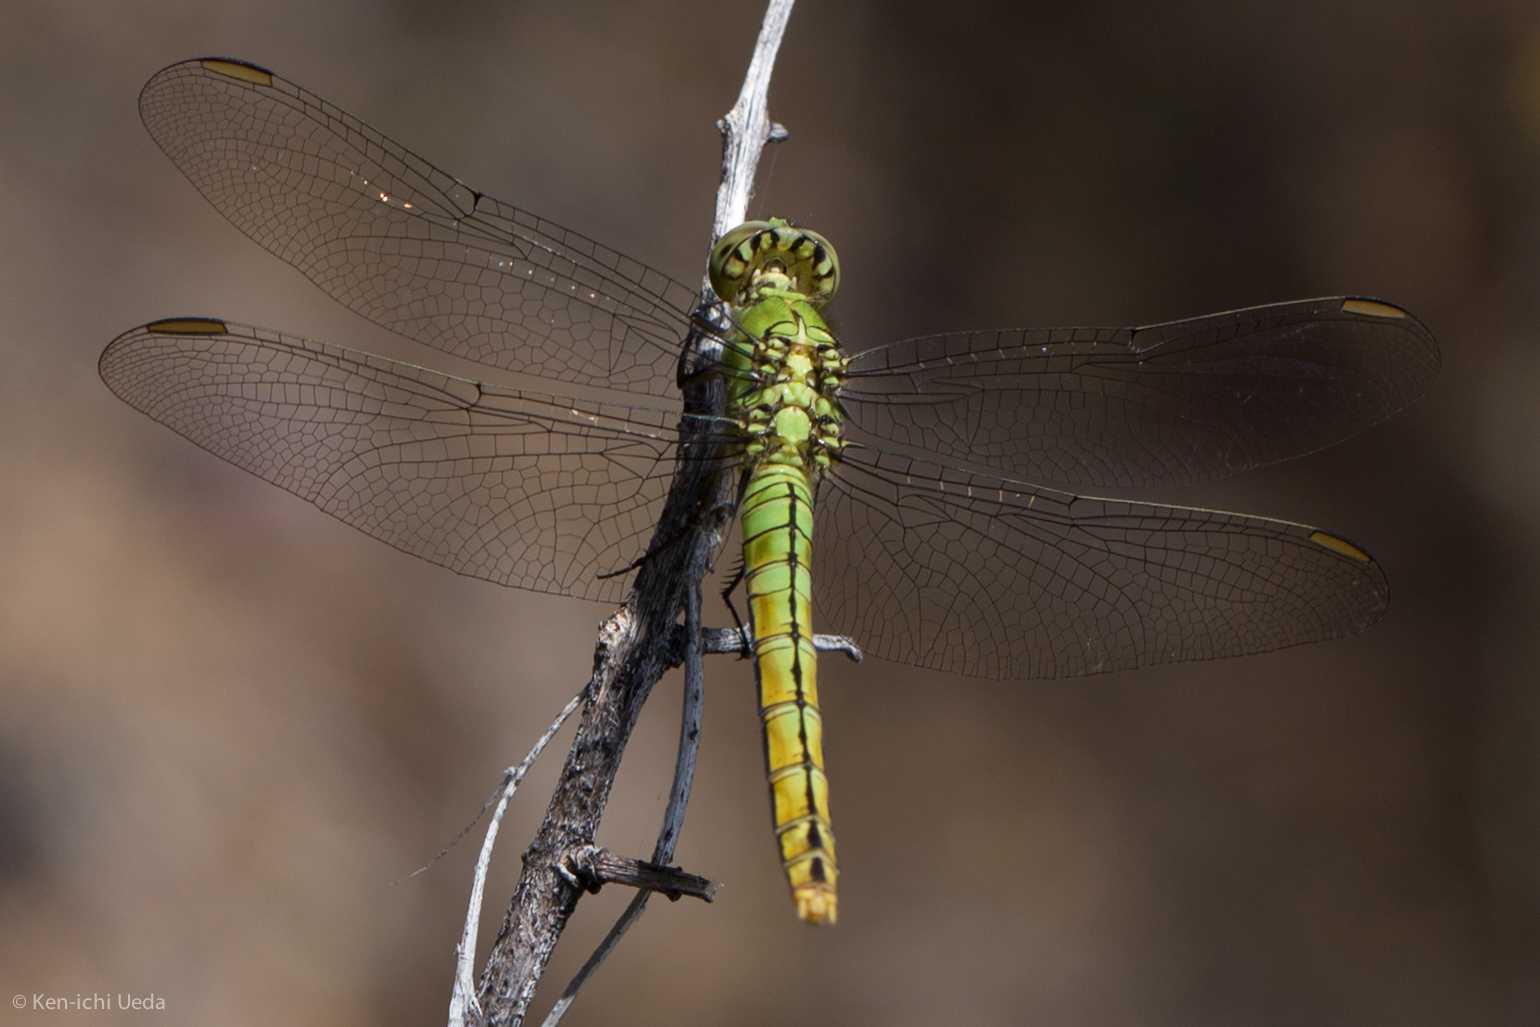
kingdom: Animalia
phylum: Arthropoda
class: Insecta
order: Odonata
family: Libellulidae
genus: Erythemis
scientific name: Erythemis collocata
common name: Western pondhawk
